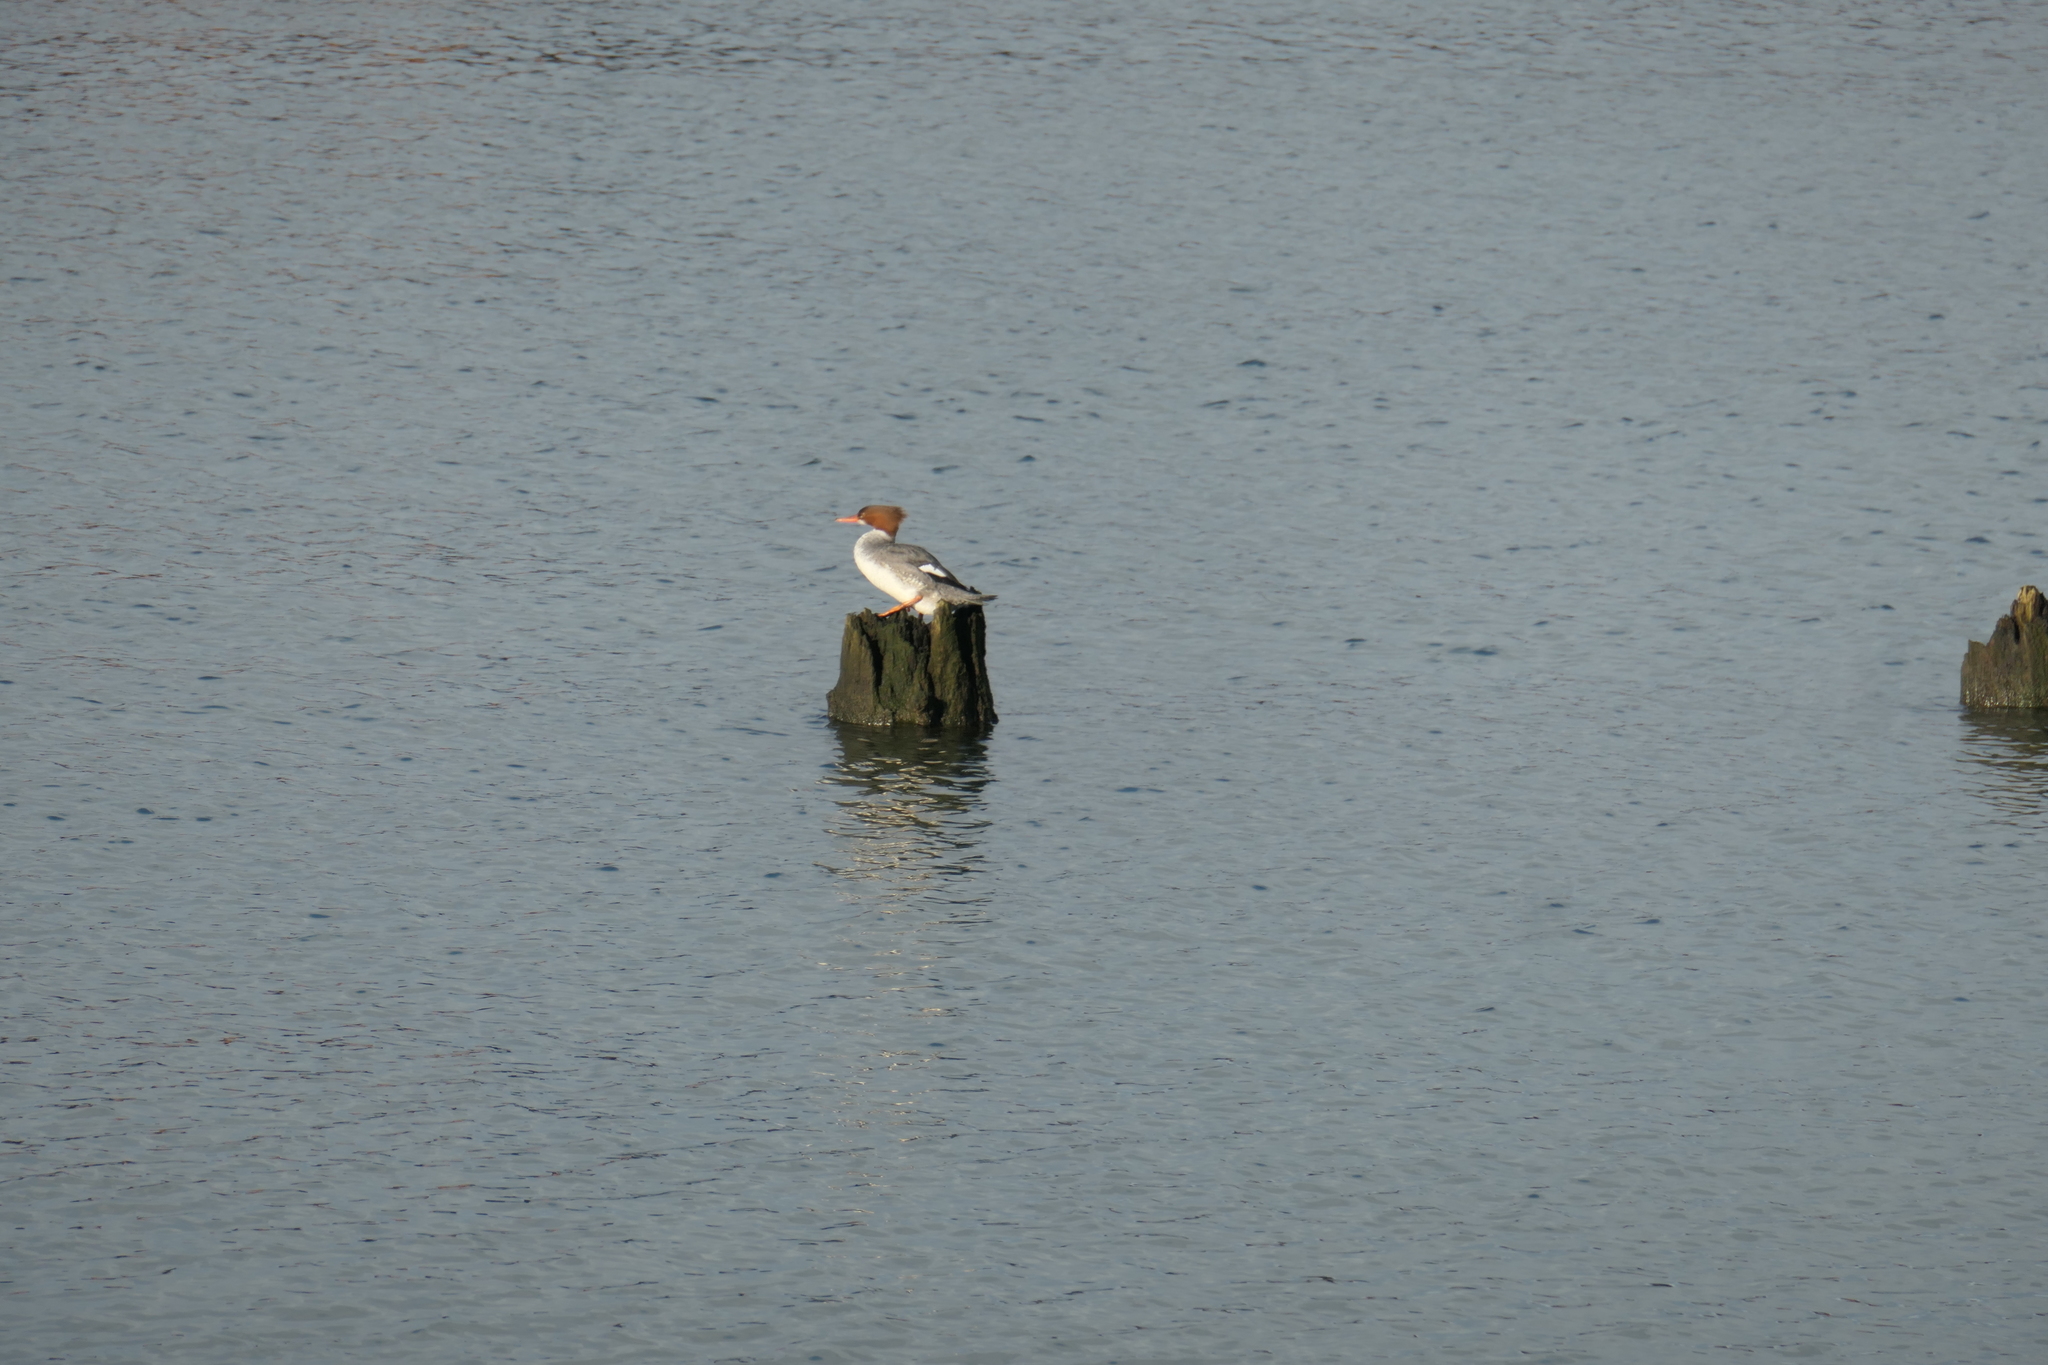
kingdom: Animalia
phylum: Chordata
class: Aves
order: Anseriformes
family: Anatidae
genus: Mergus
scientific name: Mergus merganser
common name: Common merganser
